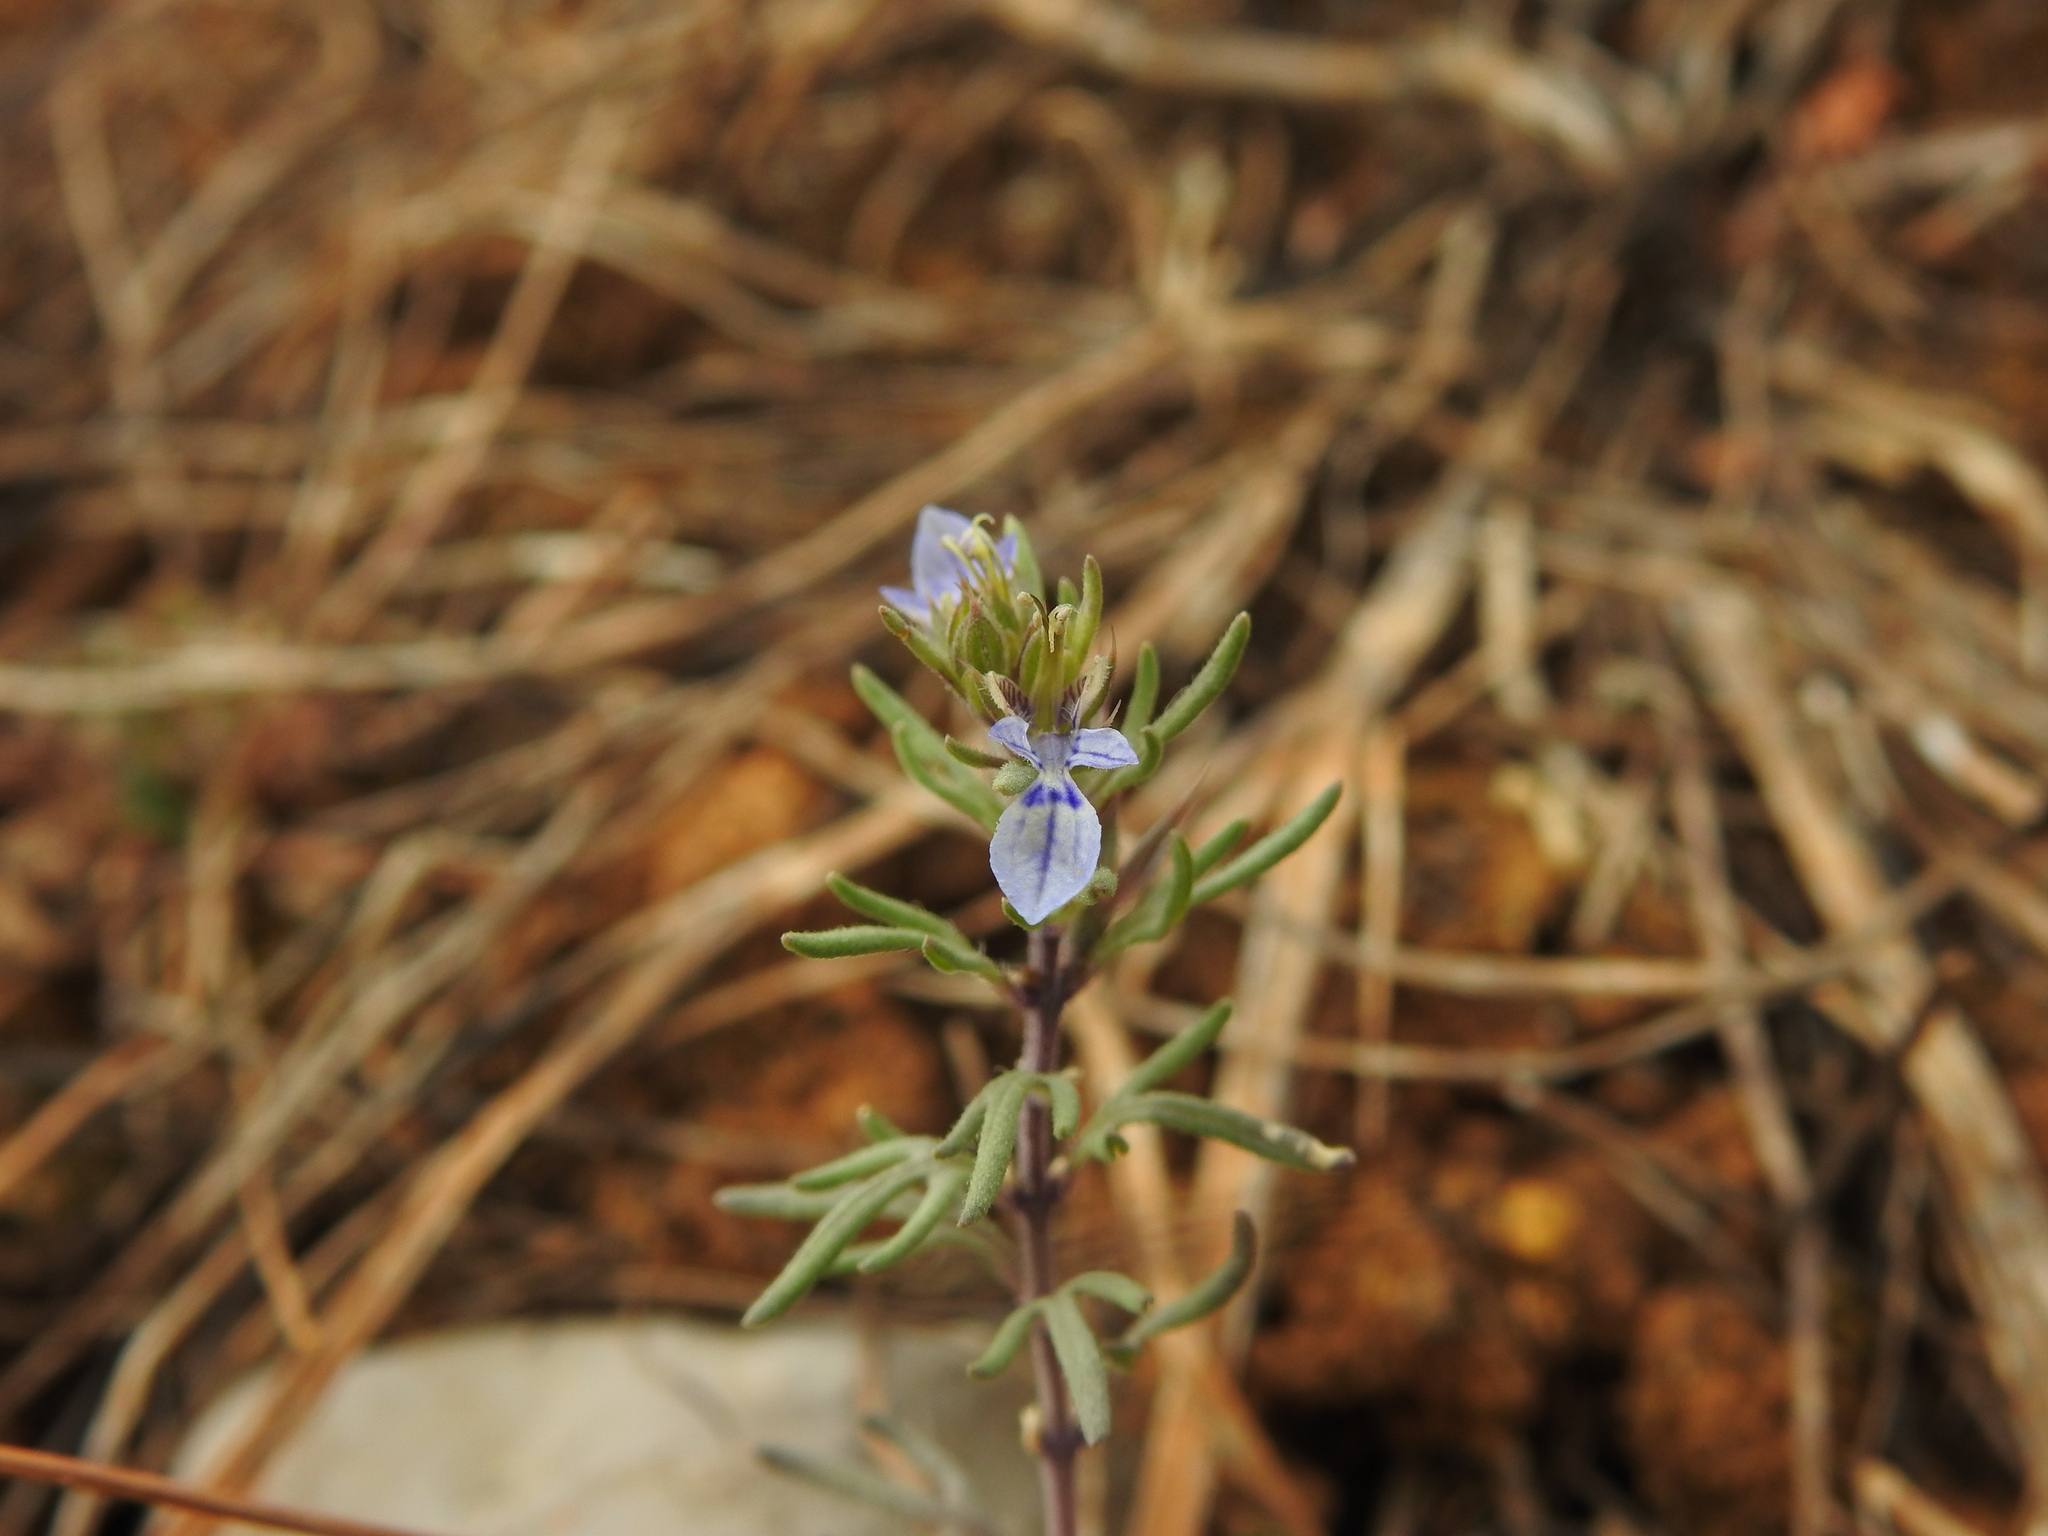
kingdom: Plantae
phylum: Tracheophyta
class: Magnoliopsida
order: Lamiales
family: Lamiaceae
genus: Teucrium
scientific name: Teucrium aristatum
